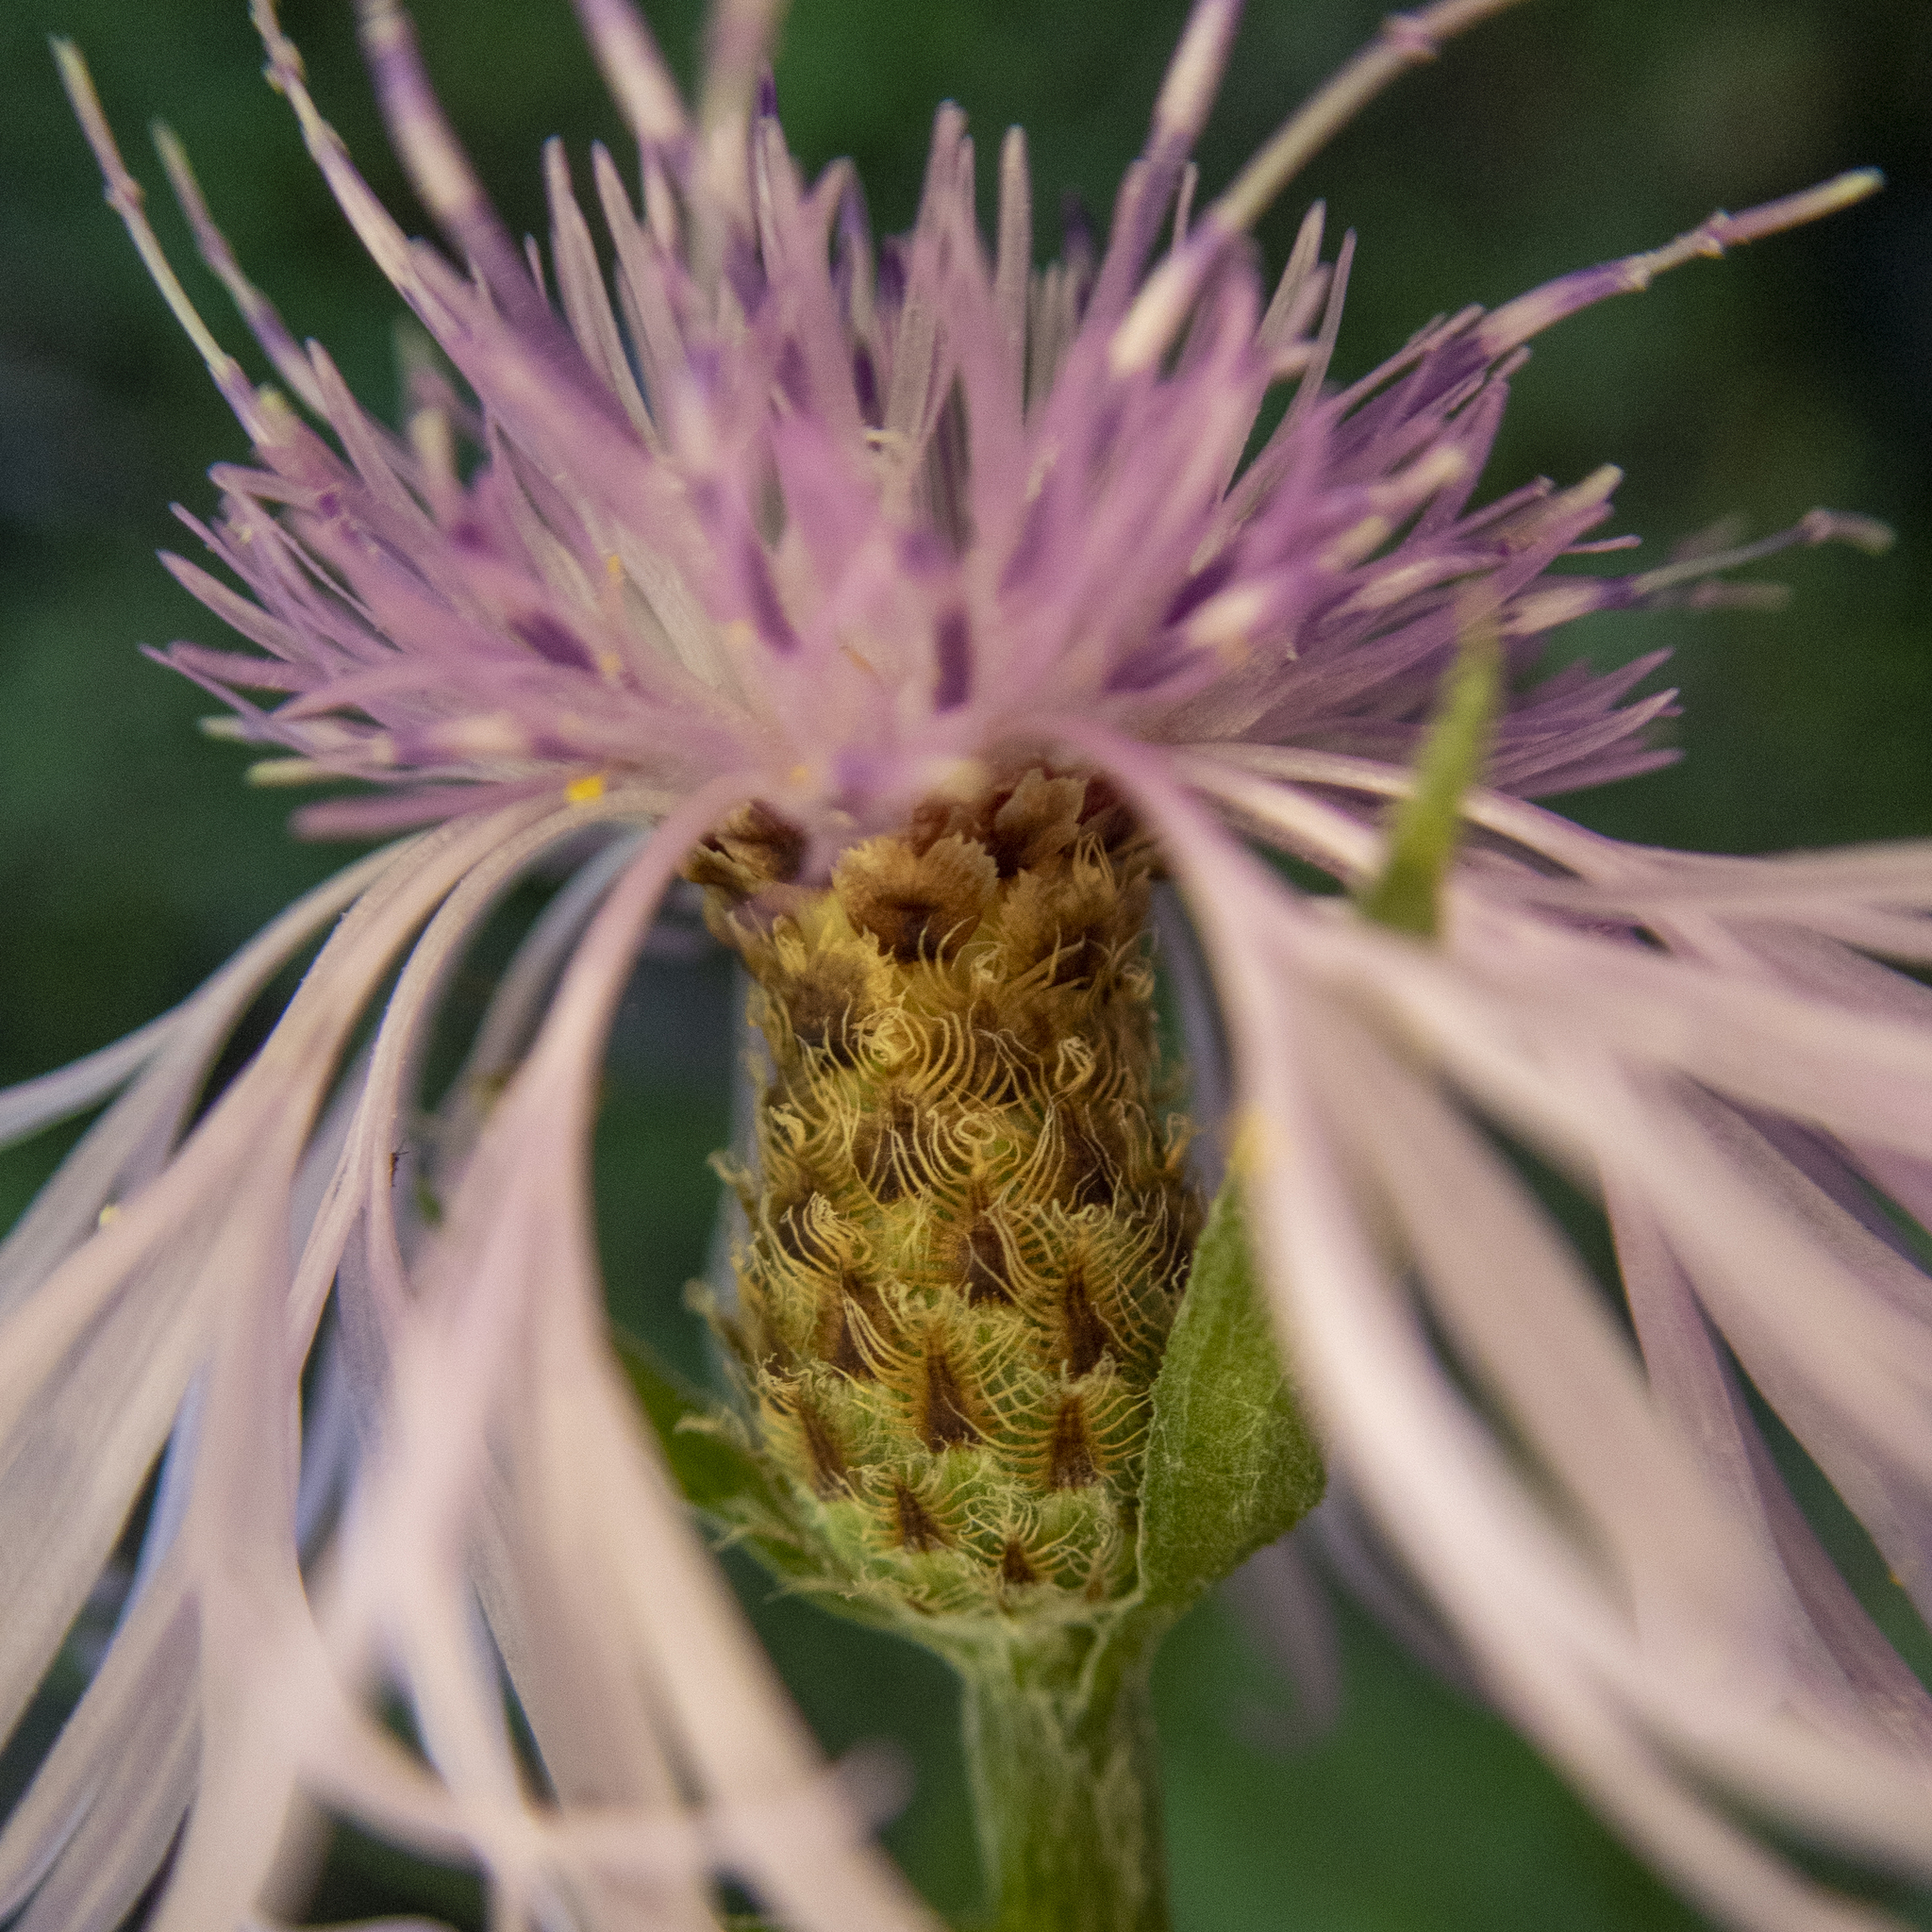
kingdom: Plantae
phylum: Tracheophyta
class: Magnoliopsida
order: Asterales
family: Asteraceae
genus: Centaurea
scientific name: Centaurea moncktonii
